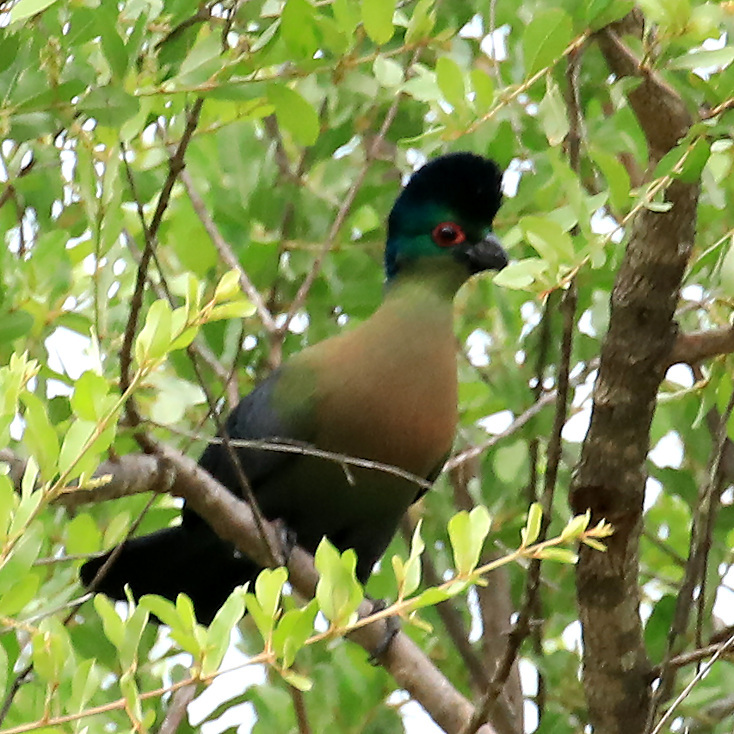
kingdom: Animalia
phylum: Chordata
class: Aves
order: Musophagiformes
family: Musophagidae
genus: Tauraco
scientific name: Tauraco porphyreolophus
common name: Purple-crested turaco
